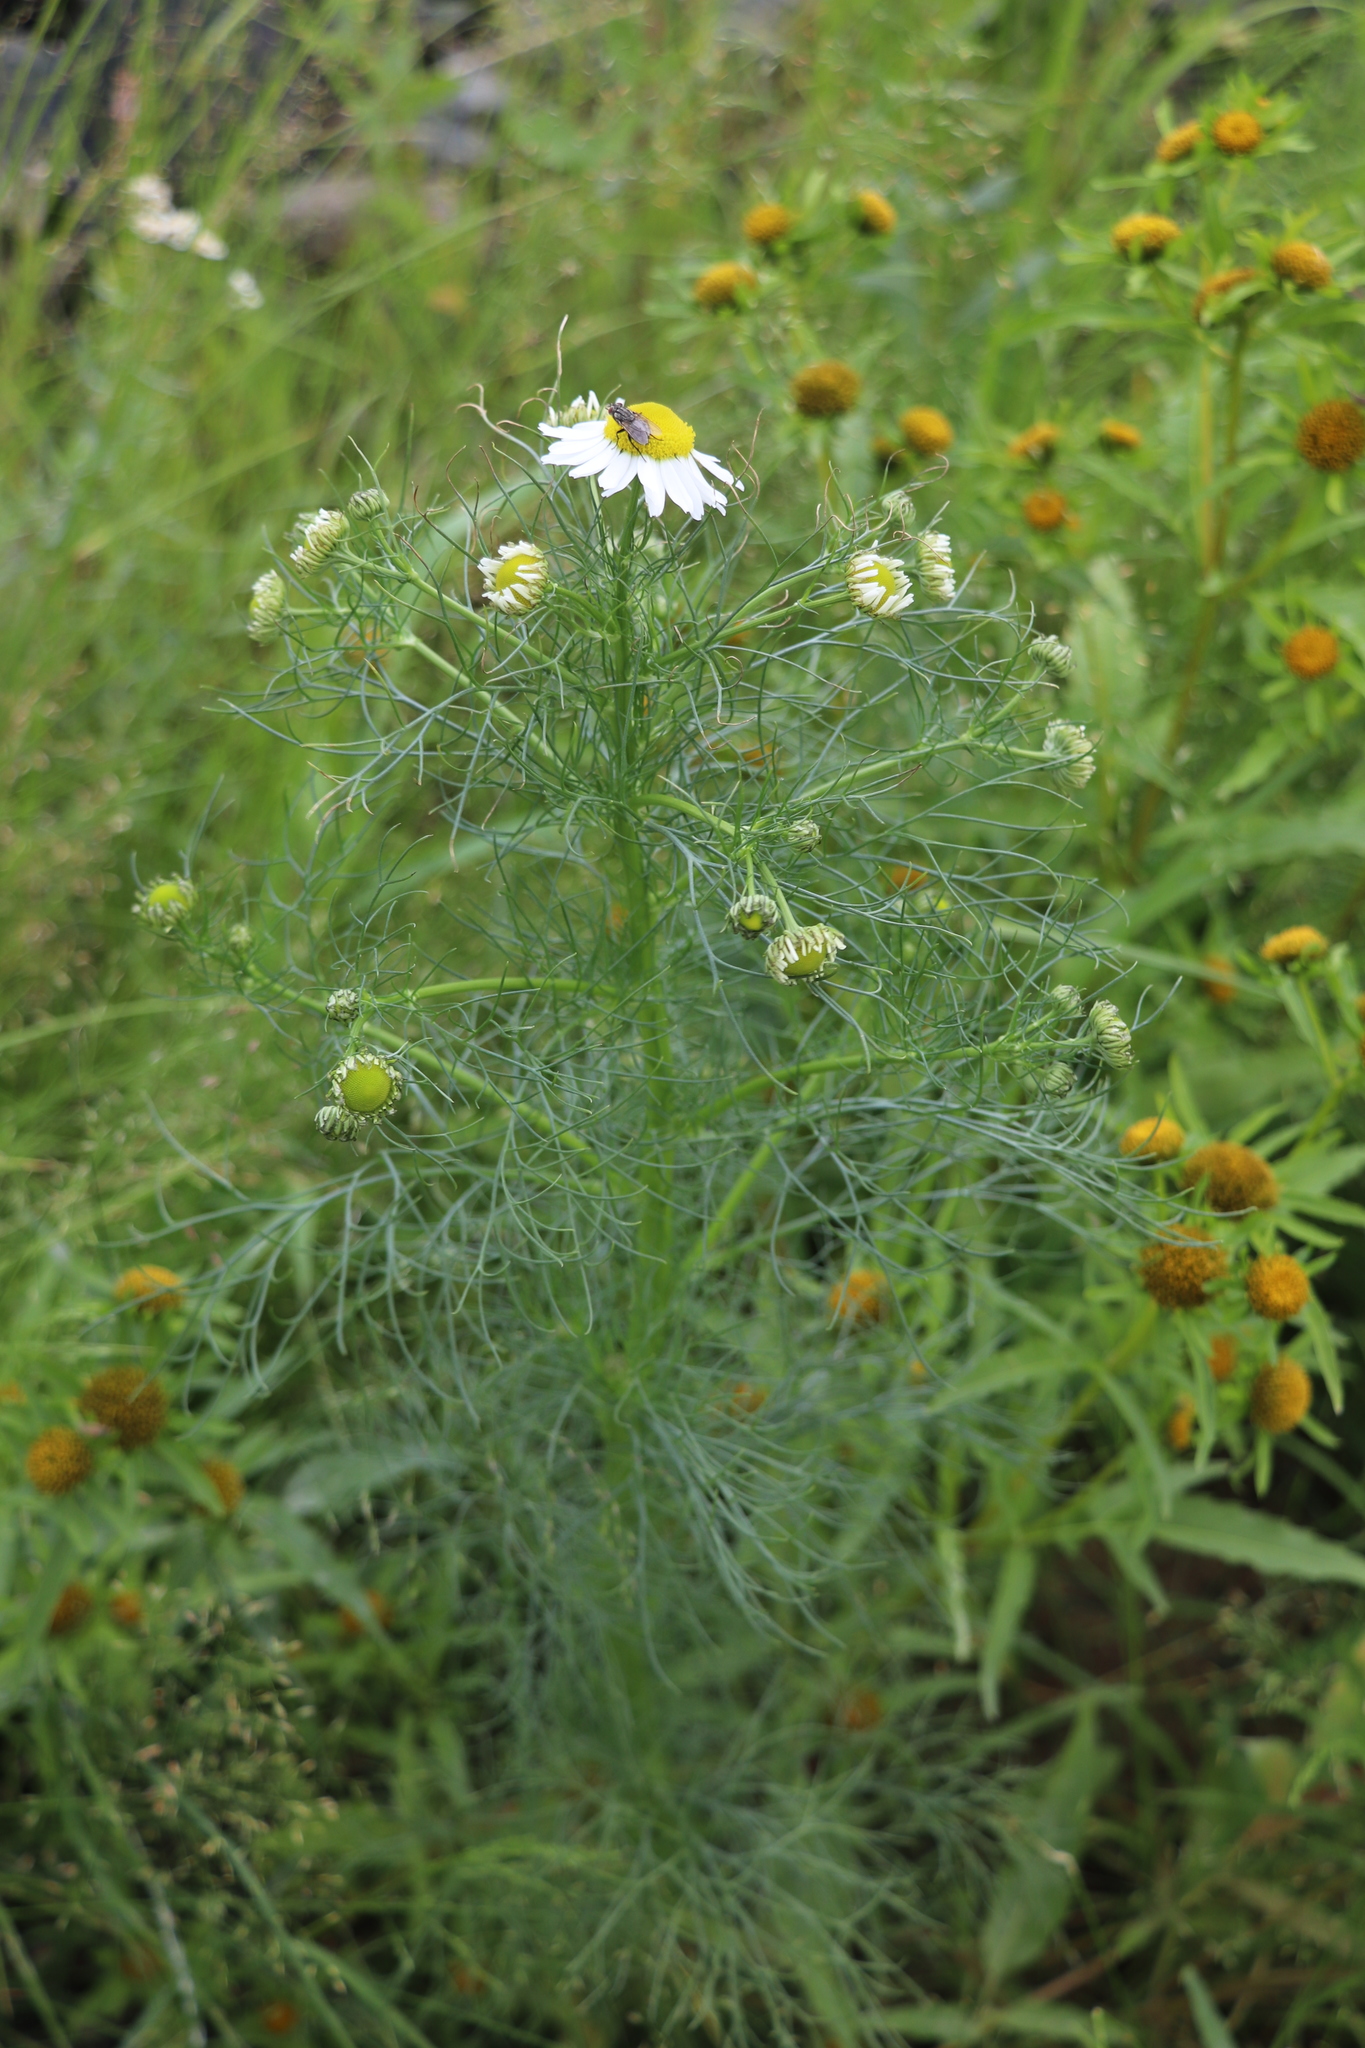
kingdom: Plantae
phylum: Tracheophyta
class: Magnoliopsida
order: Asterales
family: Asteraceae
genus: Tripleurospermum
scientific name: Tripleurospermum inodorum
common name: Scentless mayweed
